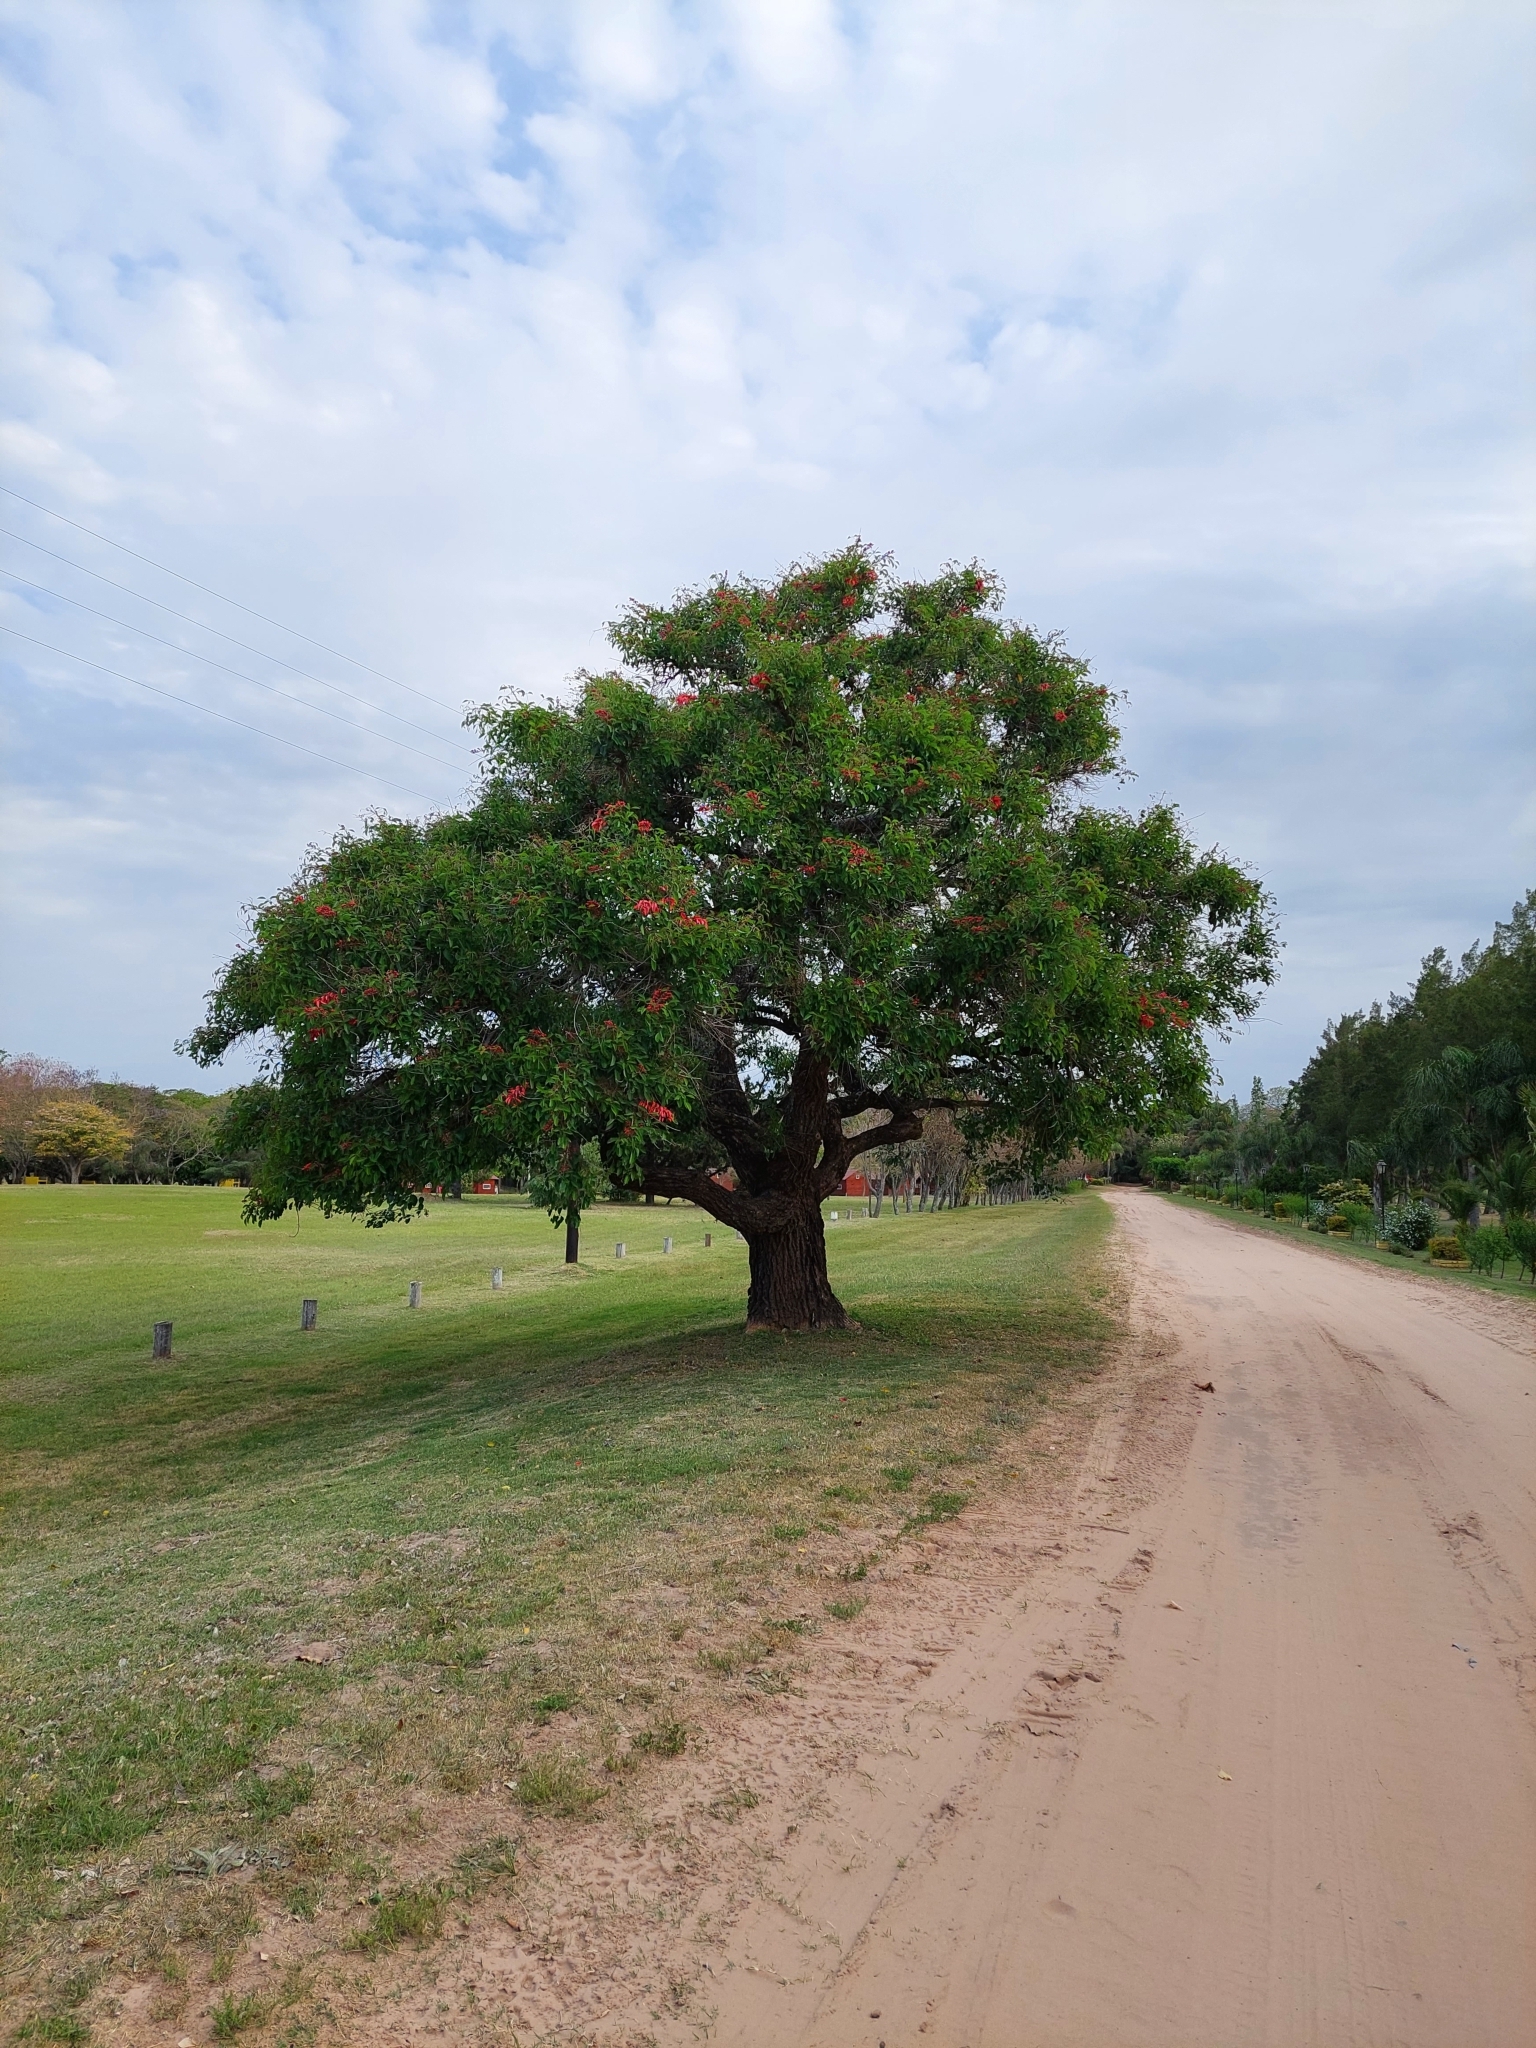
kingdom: Plantae
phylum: Tracheophyta
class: Magnoliopsida
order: Fabales
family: Fabaceae
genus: Erythrina
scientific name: Erythrina crista-galli
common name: Cockspur coral tree
